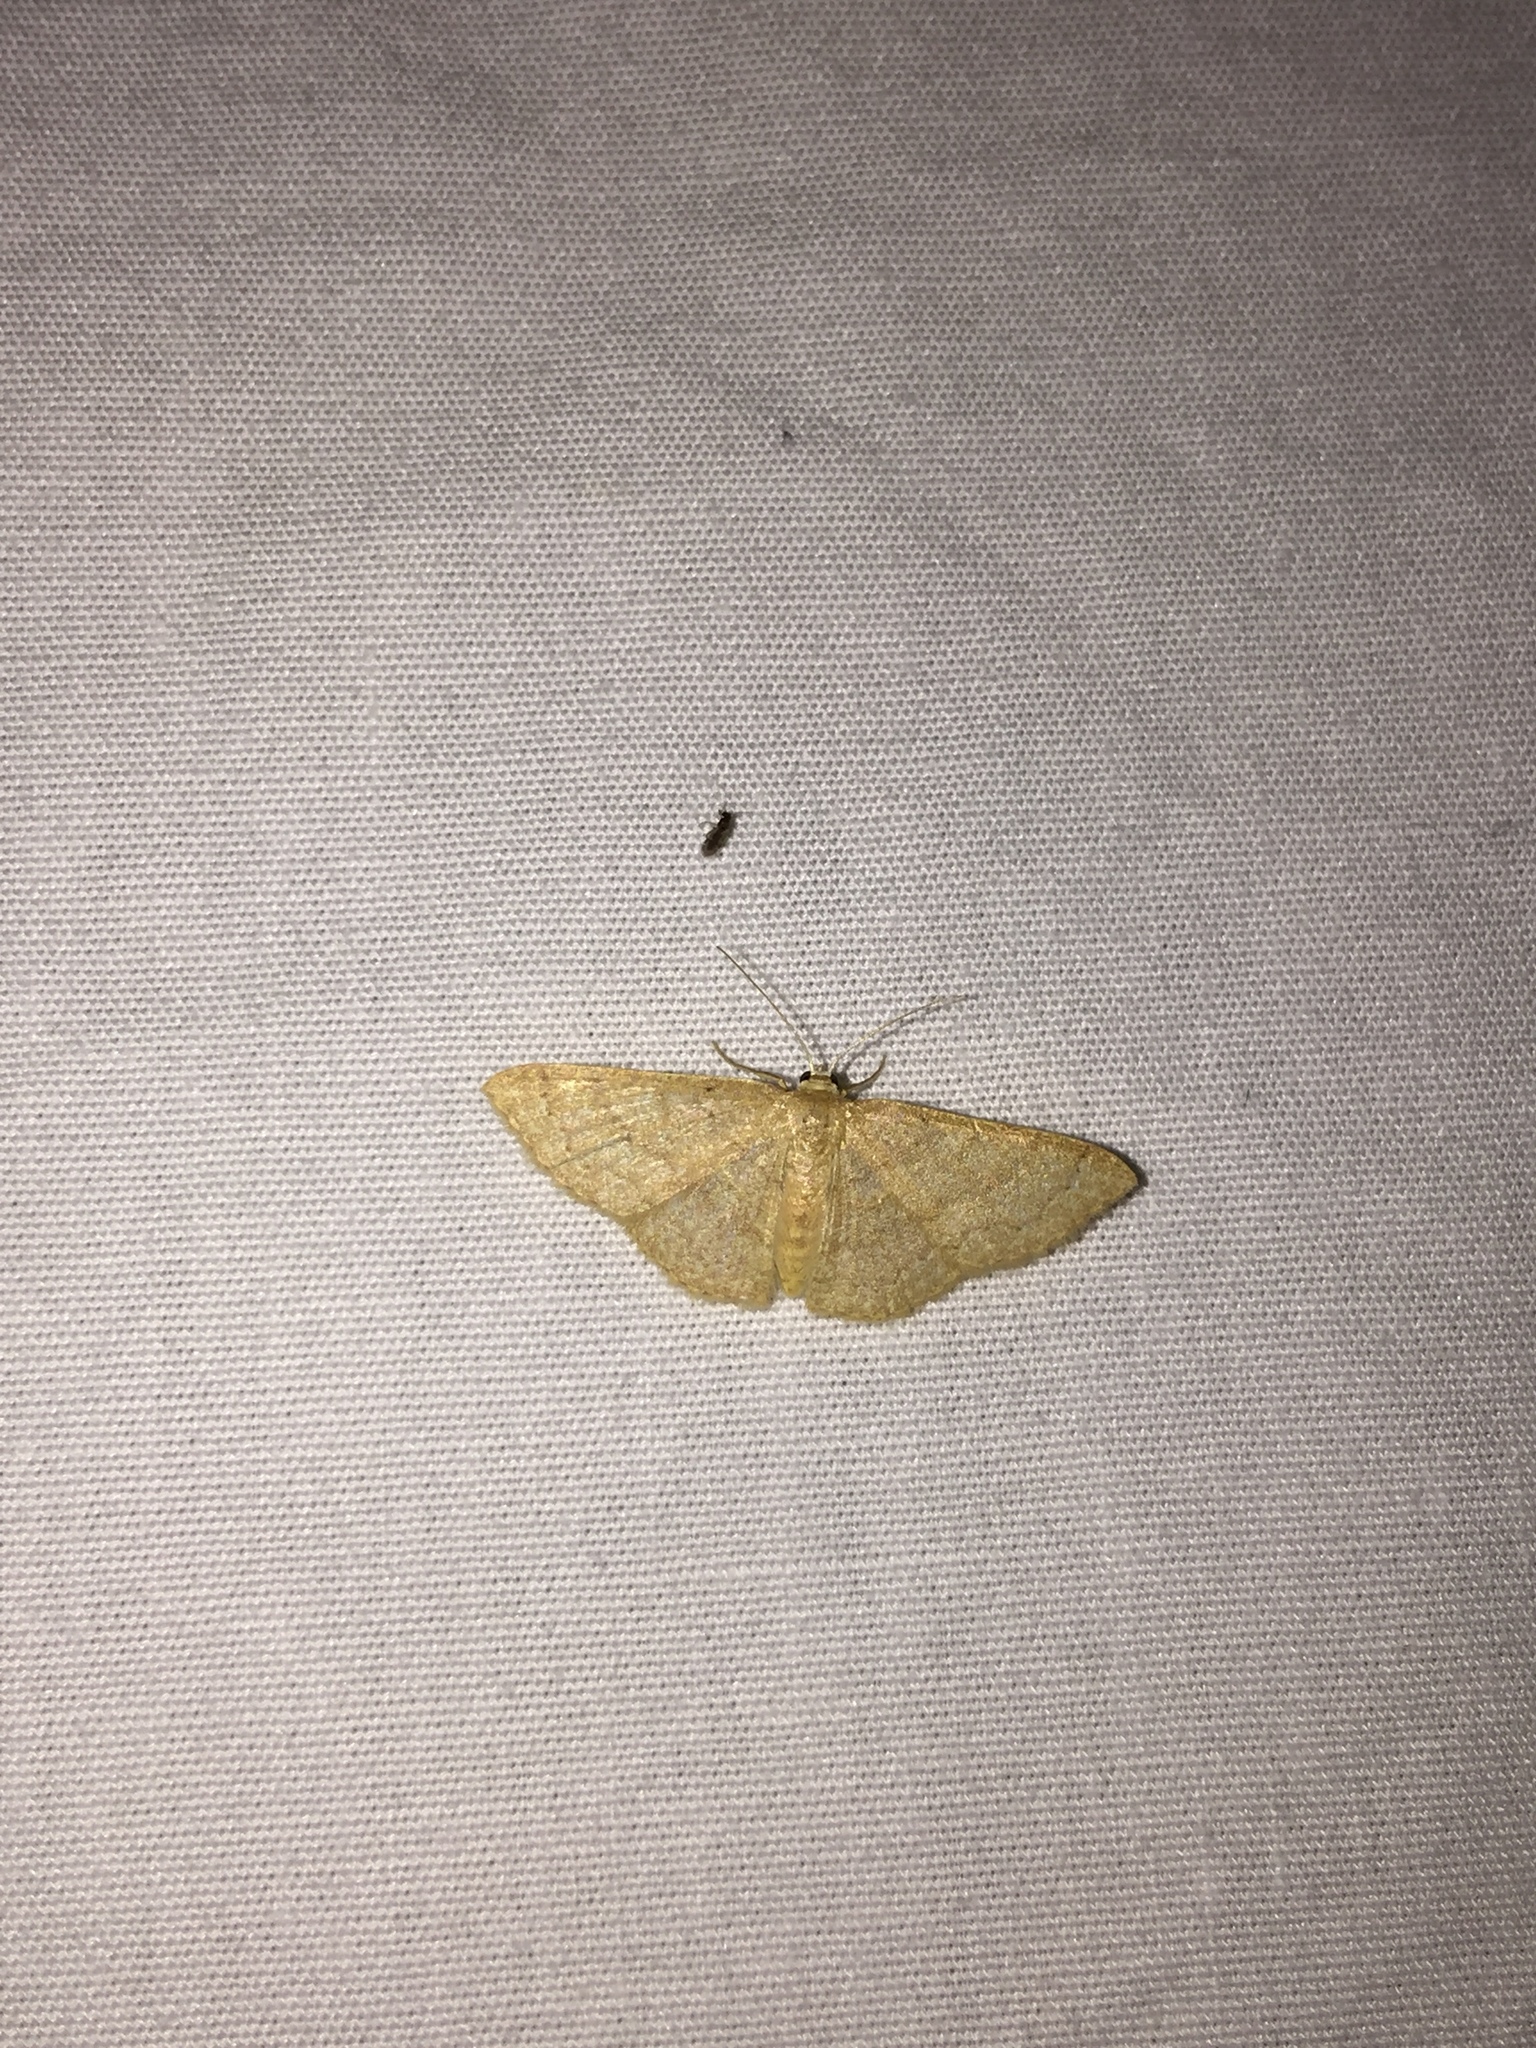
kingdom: Animalia
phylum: Arthropoda
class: Insecta
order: Lepidoptera
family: Geometridae
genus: Pleuroprucha
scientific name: Pleuroprucha insulsaria
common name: Common tan wave
